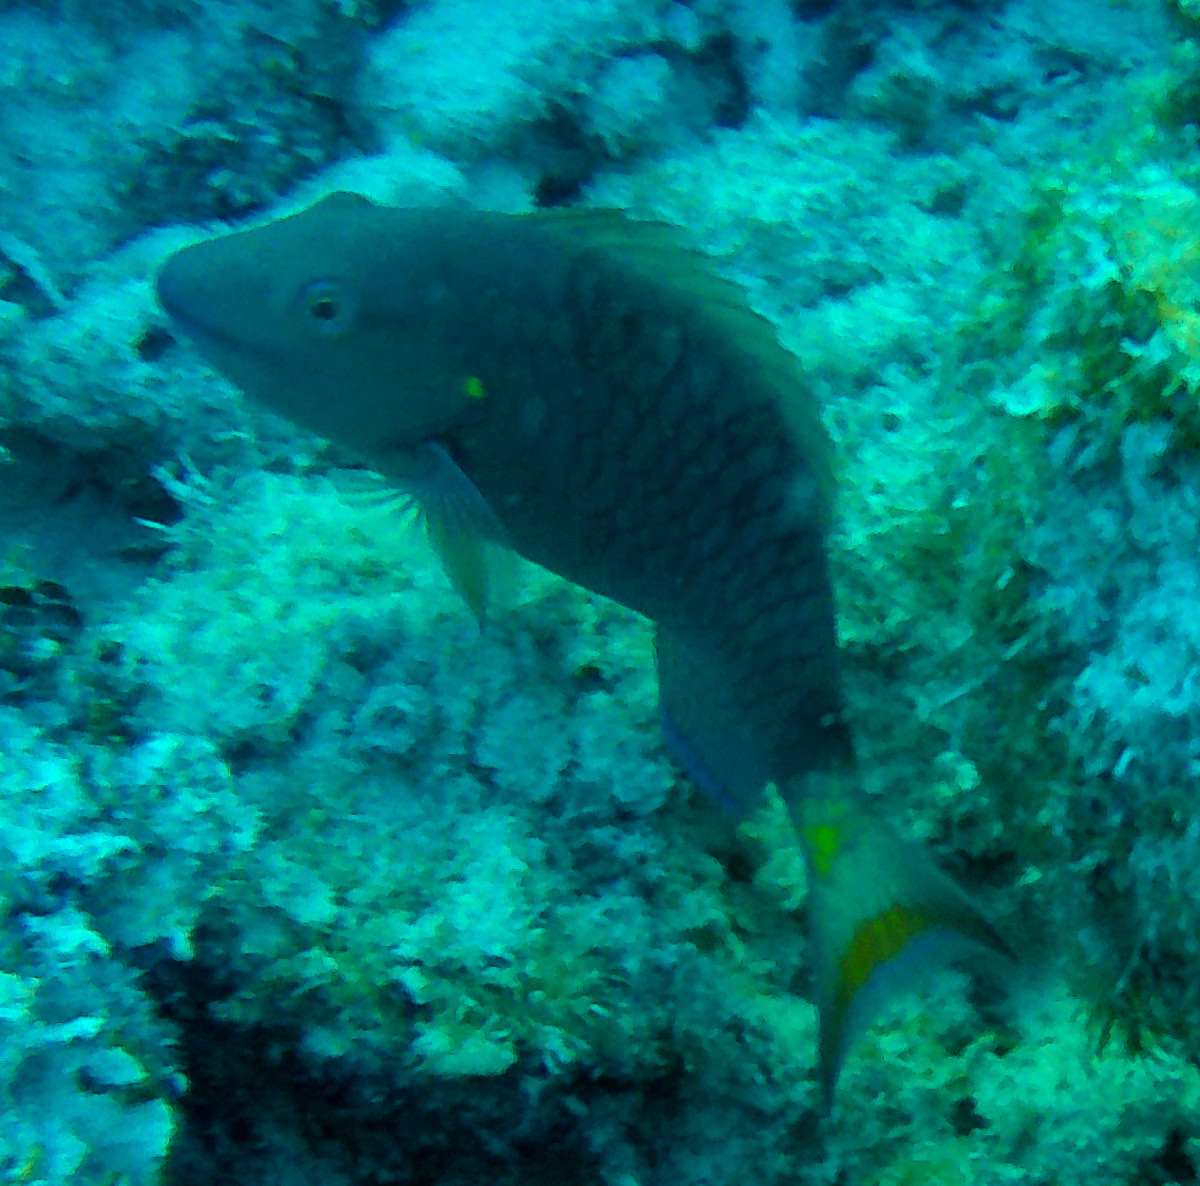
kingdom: Animalia
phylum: Chordata
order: Perciformes
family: Scaridae
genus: Sparisoma
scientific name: Sparisoma viride
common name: Stoplight parrotfish
